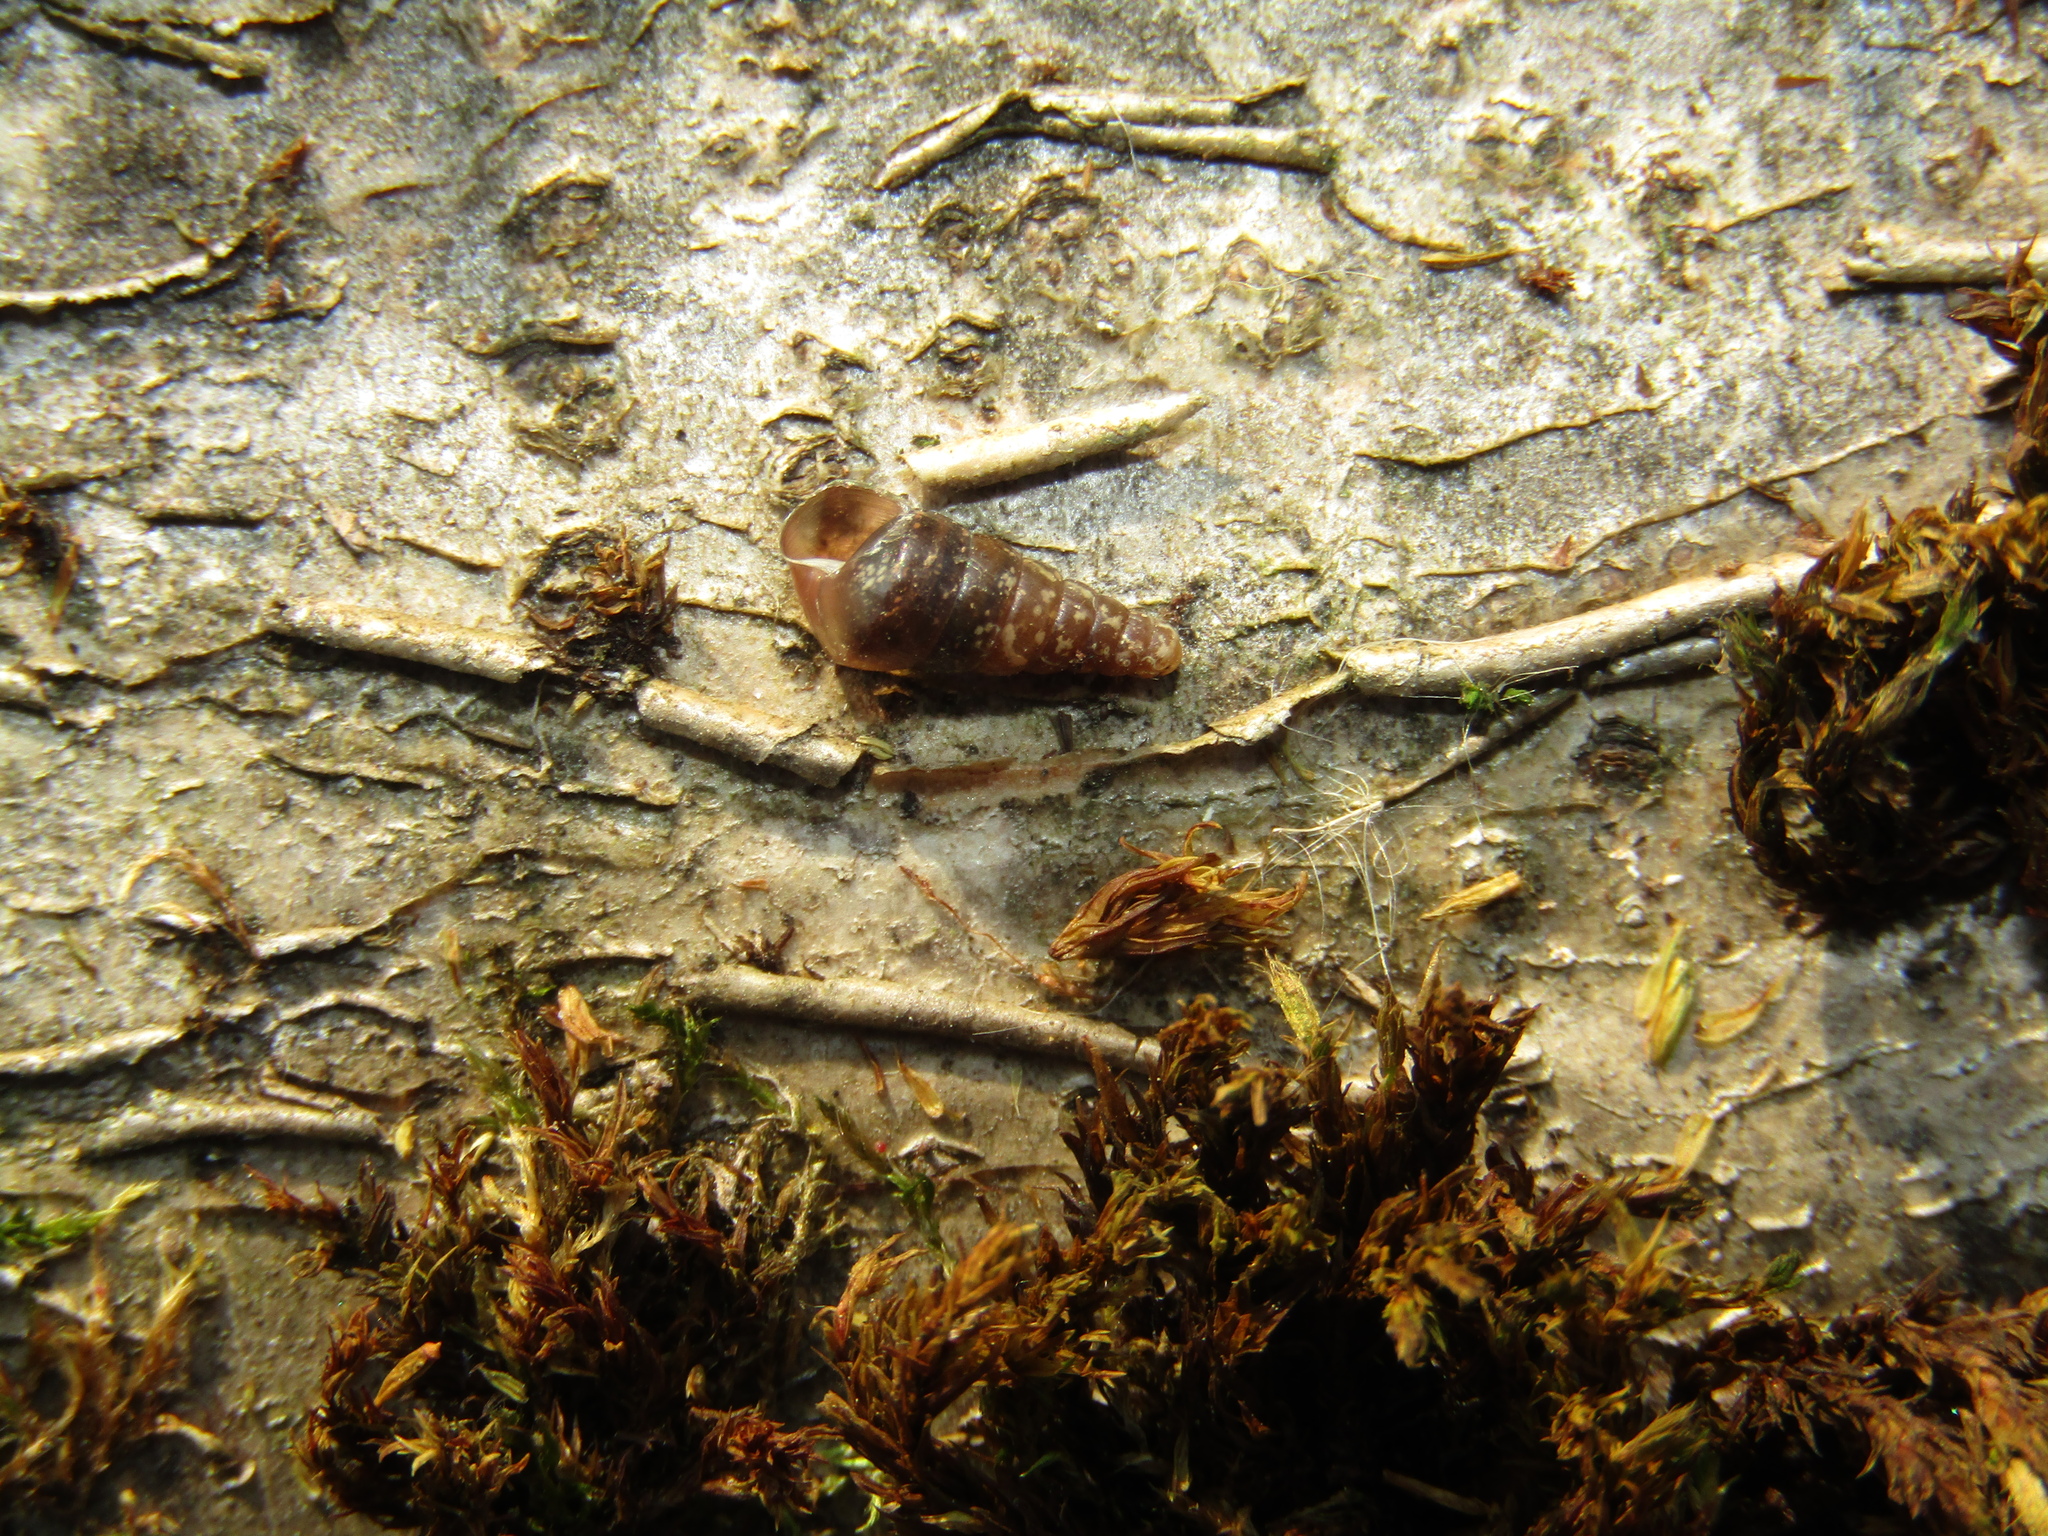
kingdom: Animalia
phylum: Mollusca
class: Gastropoda
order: Stylommatophora
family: Clausiliidae
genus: Cochlodina
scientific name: Cochlodina laminata
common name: Plaited door snail
